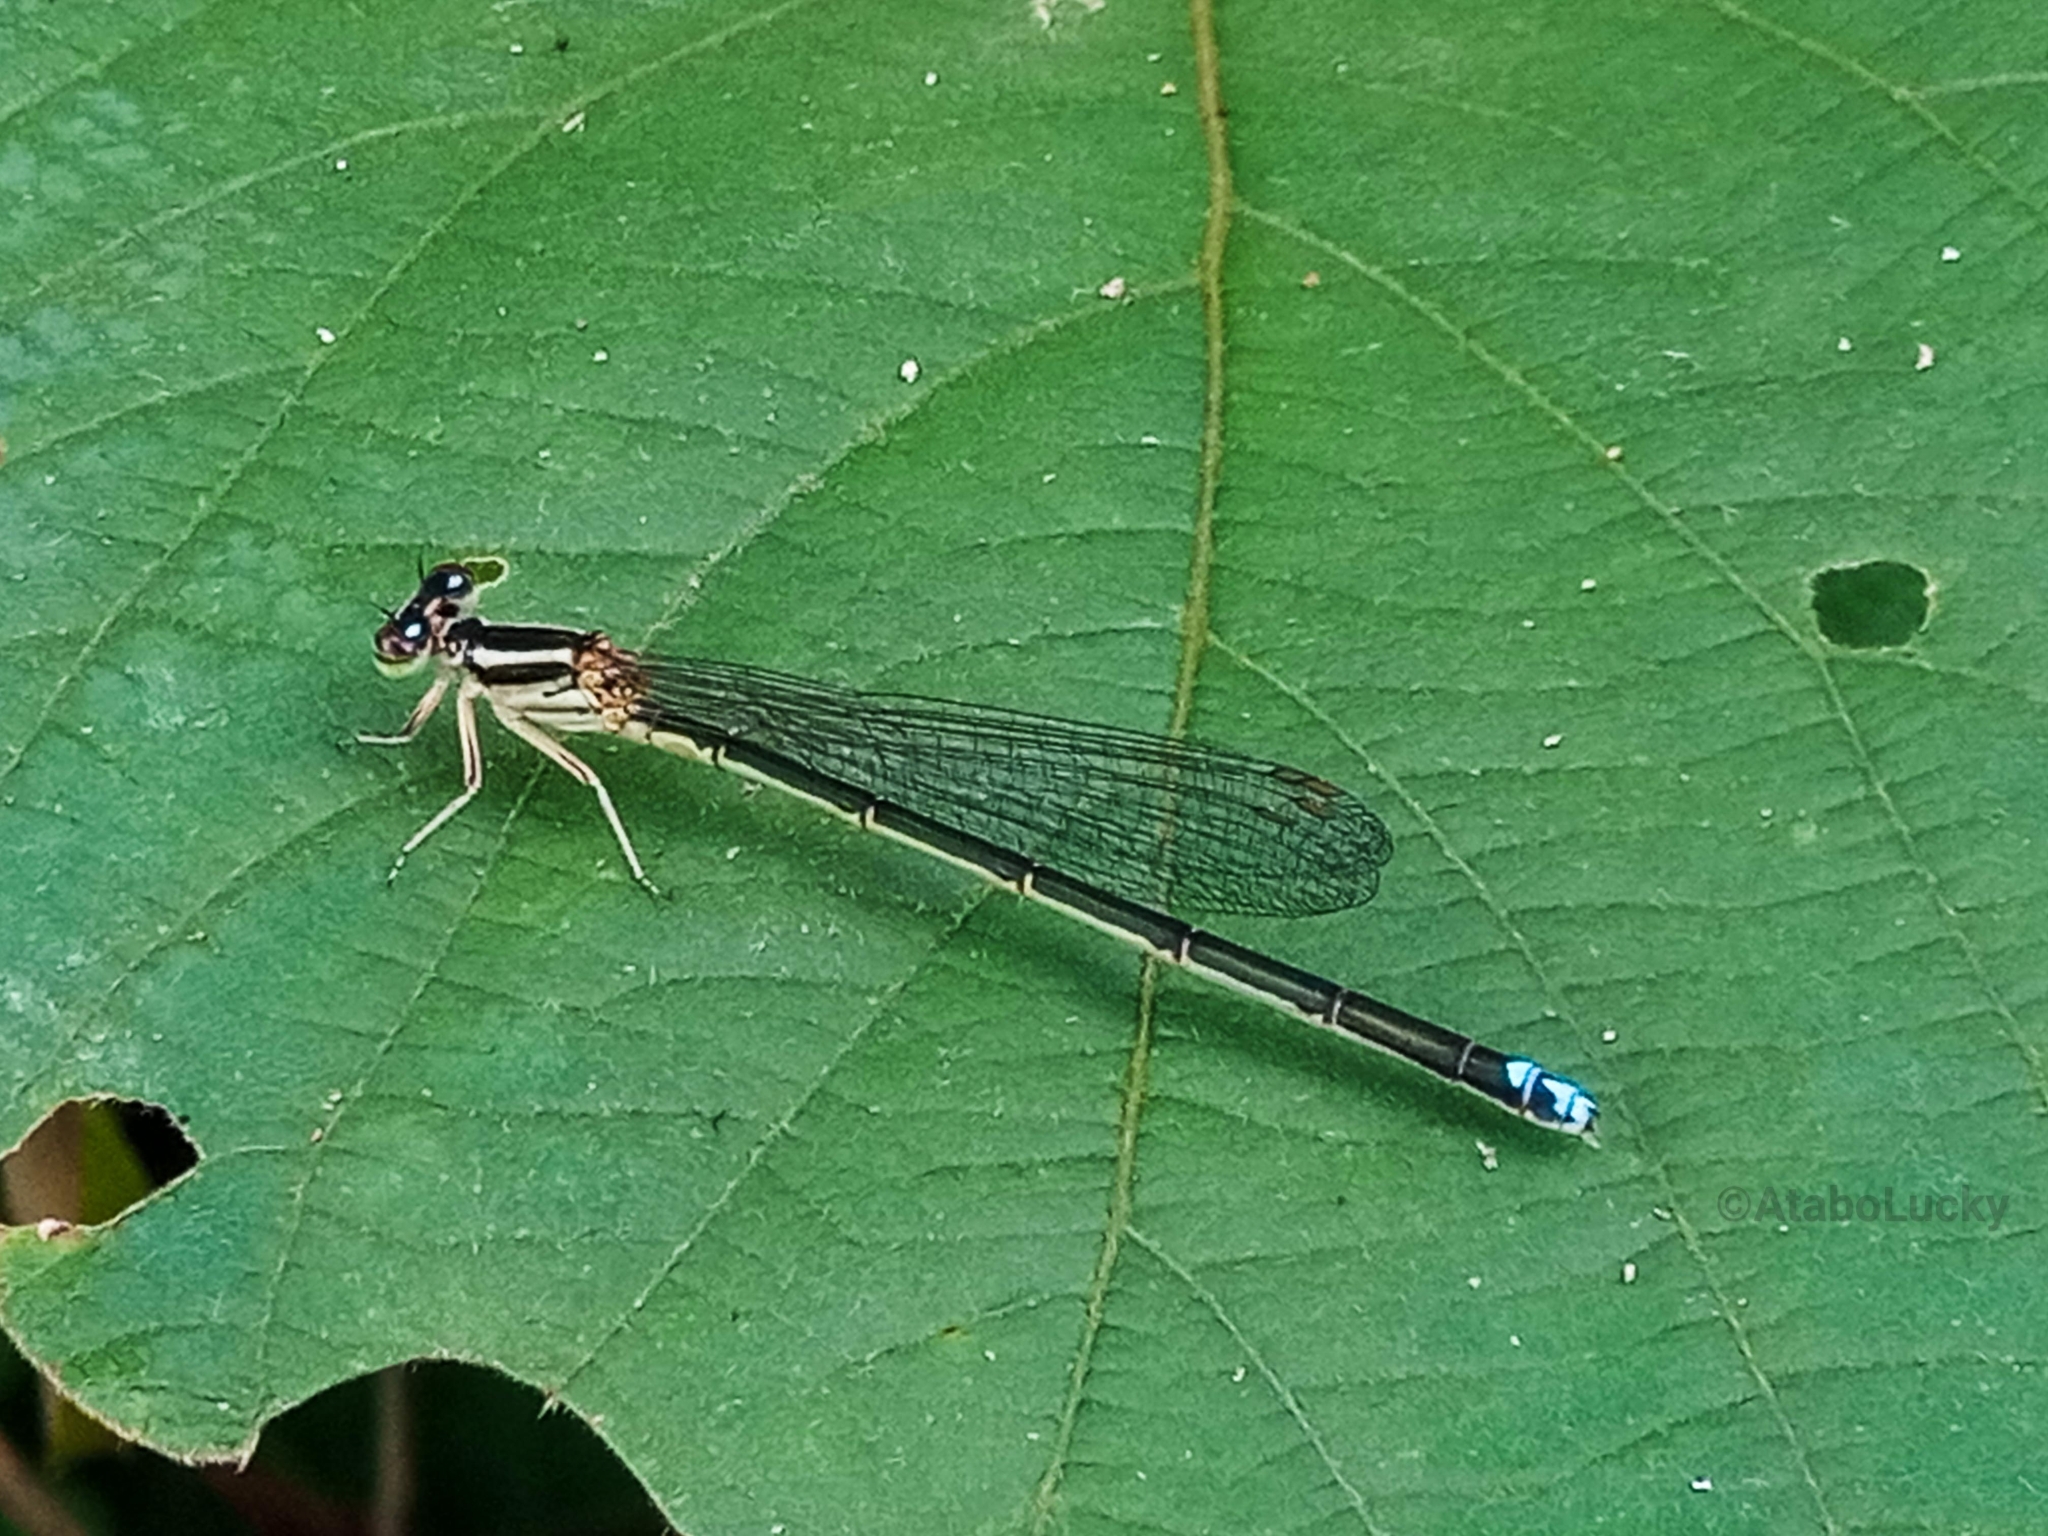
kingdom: Animalia
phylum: Arthropoda
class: Insecta
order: Odonata
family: Coenagrionidae
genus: Pseudagrion
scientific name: Pseudagrion kersteni
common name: Powder-faced sprite
